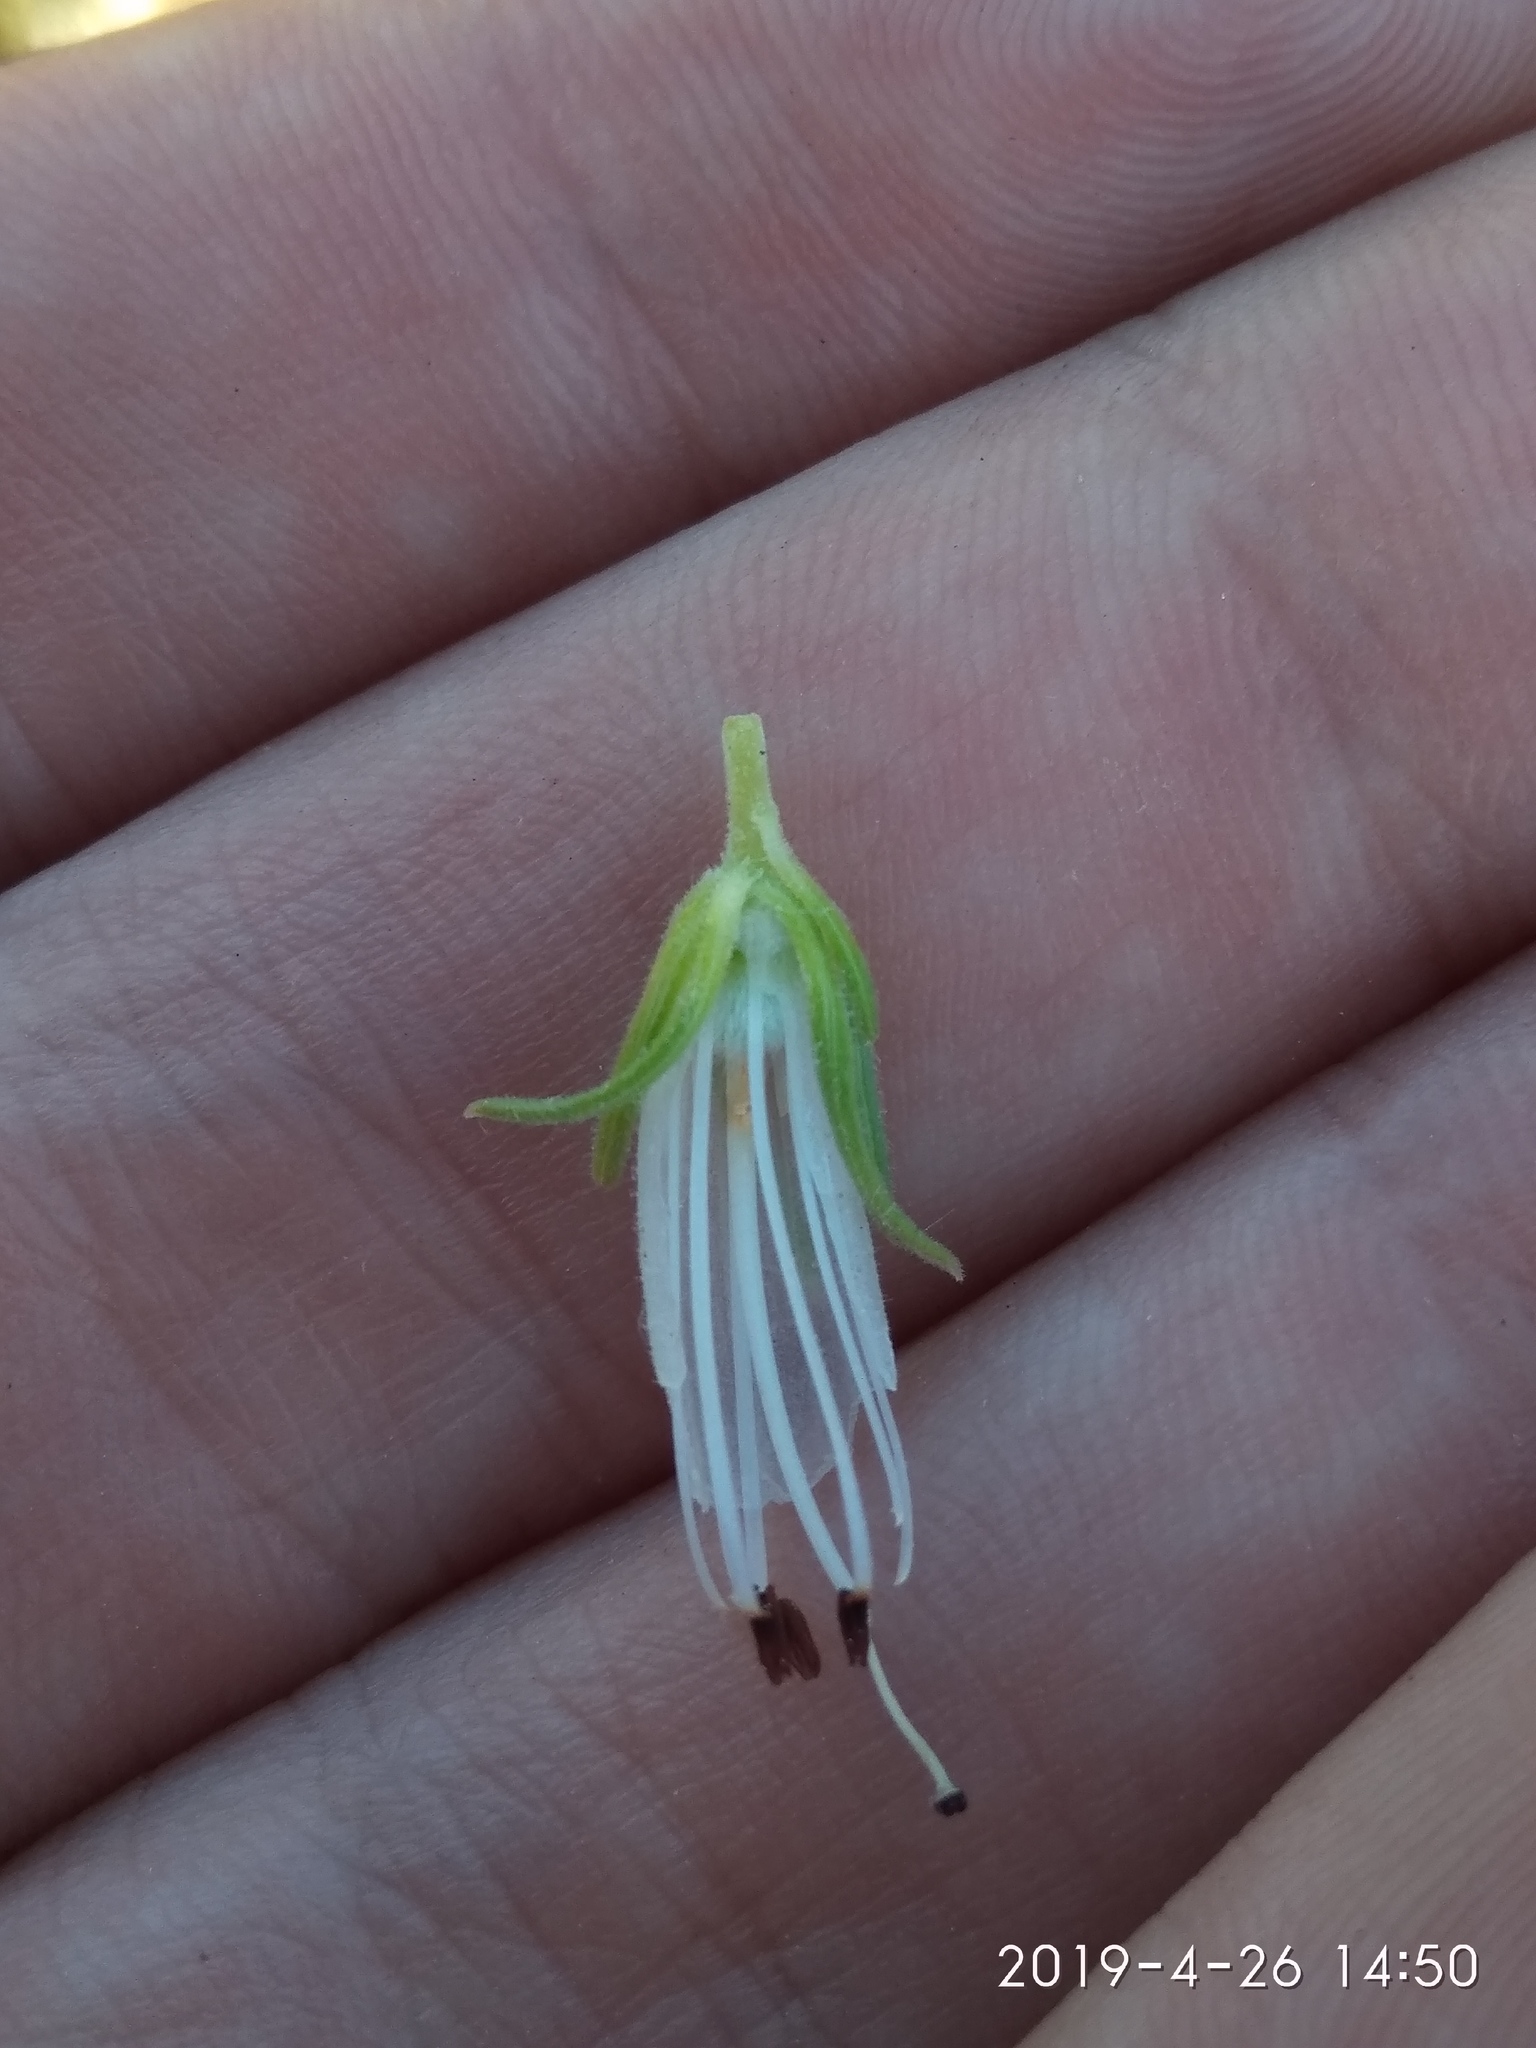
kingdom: Plantae
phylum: Tracheophyta
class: Magnoliopsida
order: Ericales
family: Ericaceae
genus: Erica
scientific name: Erica viscaria
